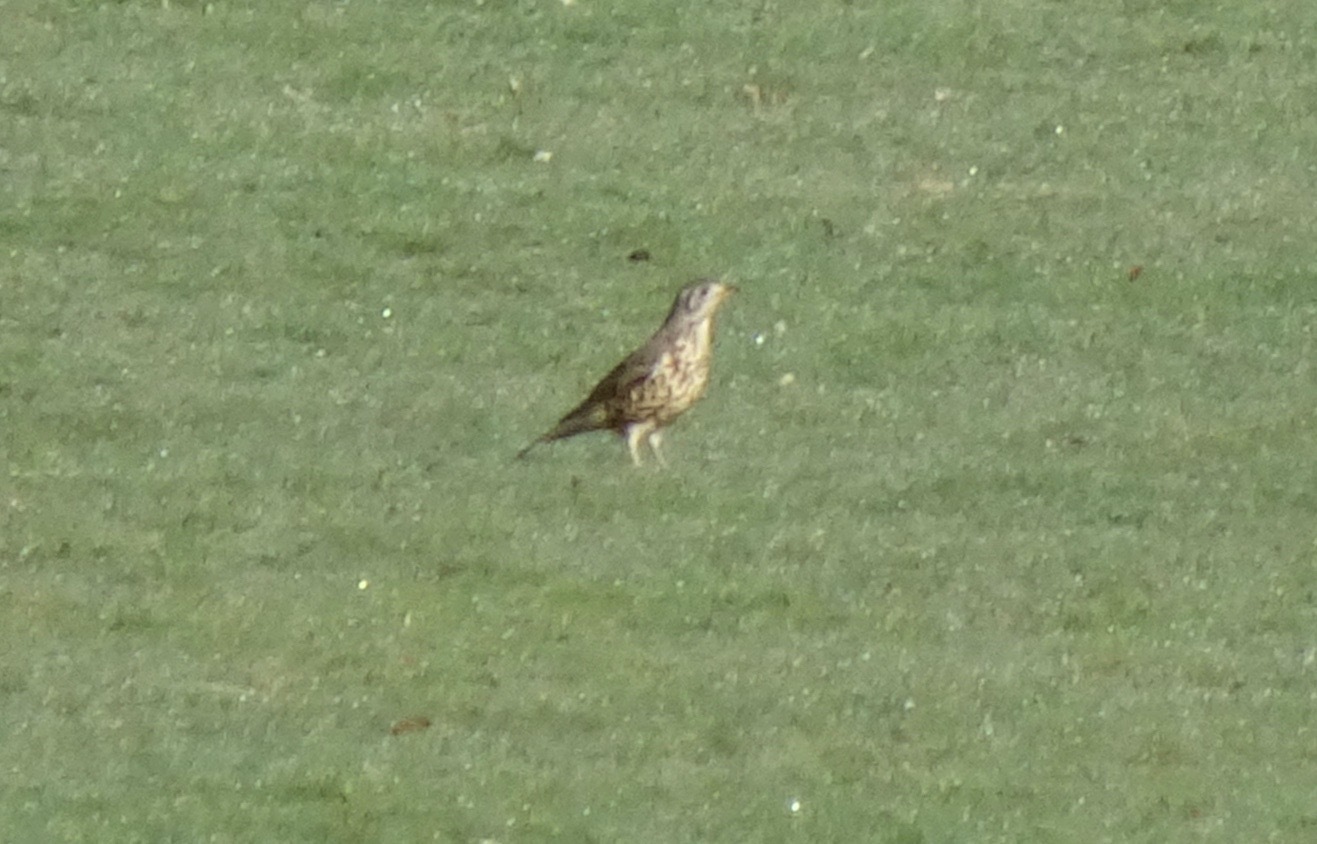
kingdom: Animalia
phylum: Chordata
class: Aves
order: Passeriformes
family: Turdidae
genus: Turdus
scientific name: Turdus viscivorus
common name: Mistle thrush
